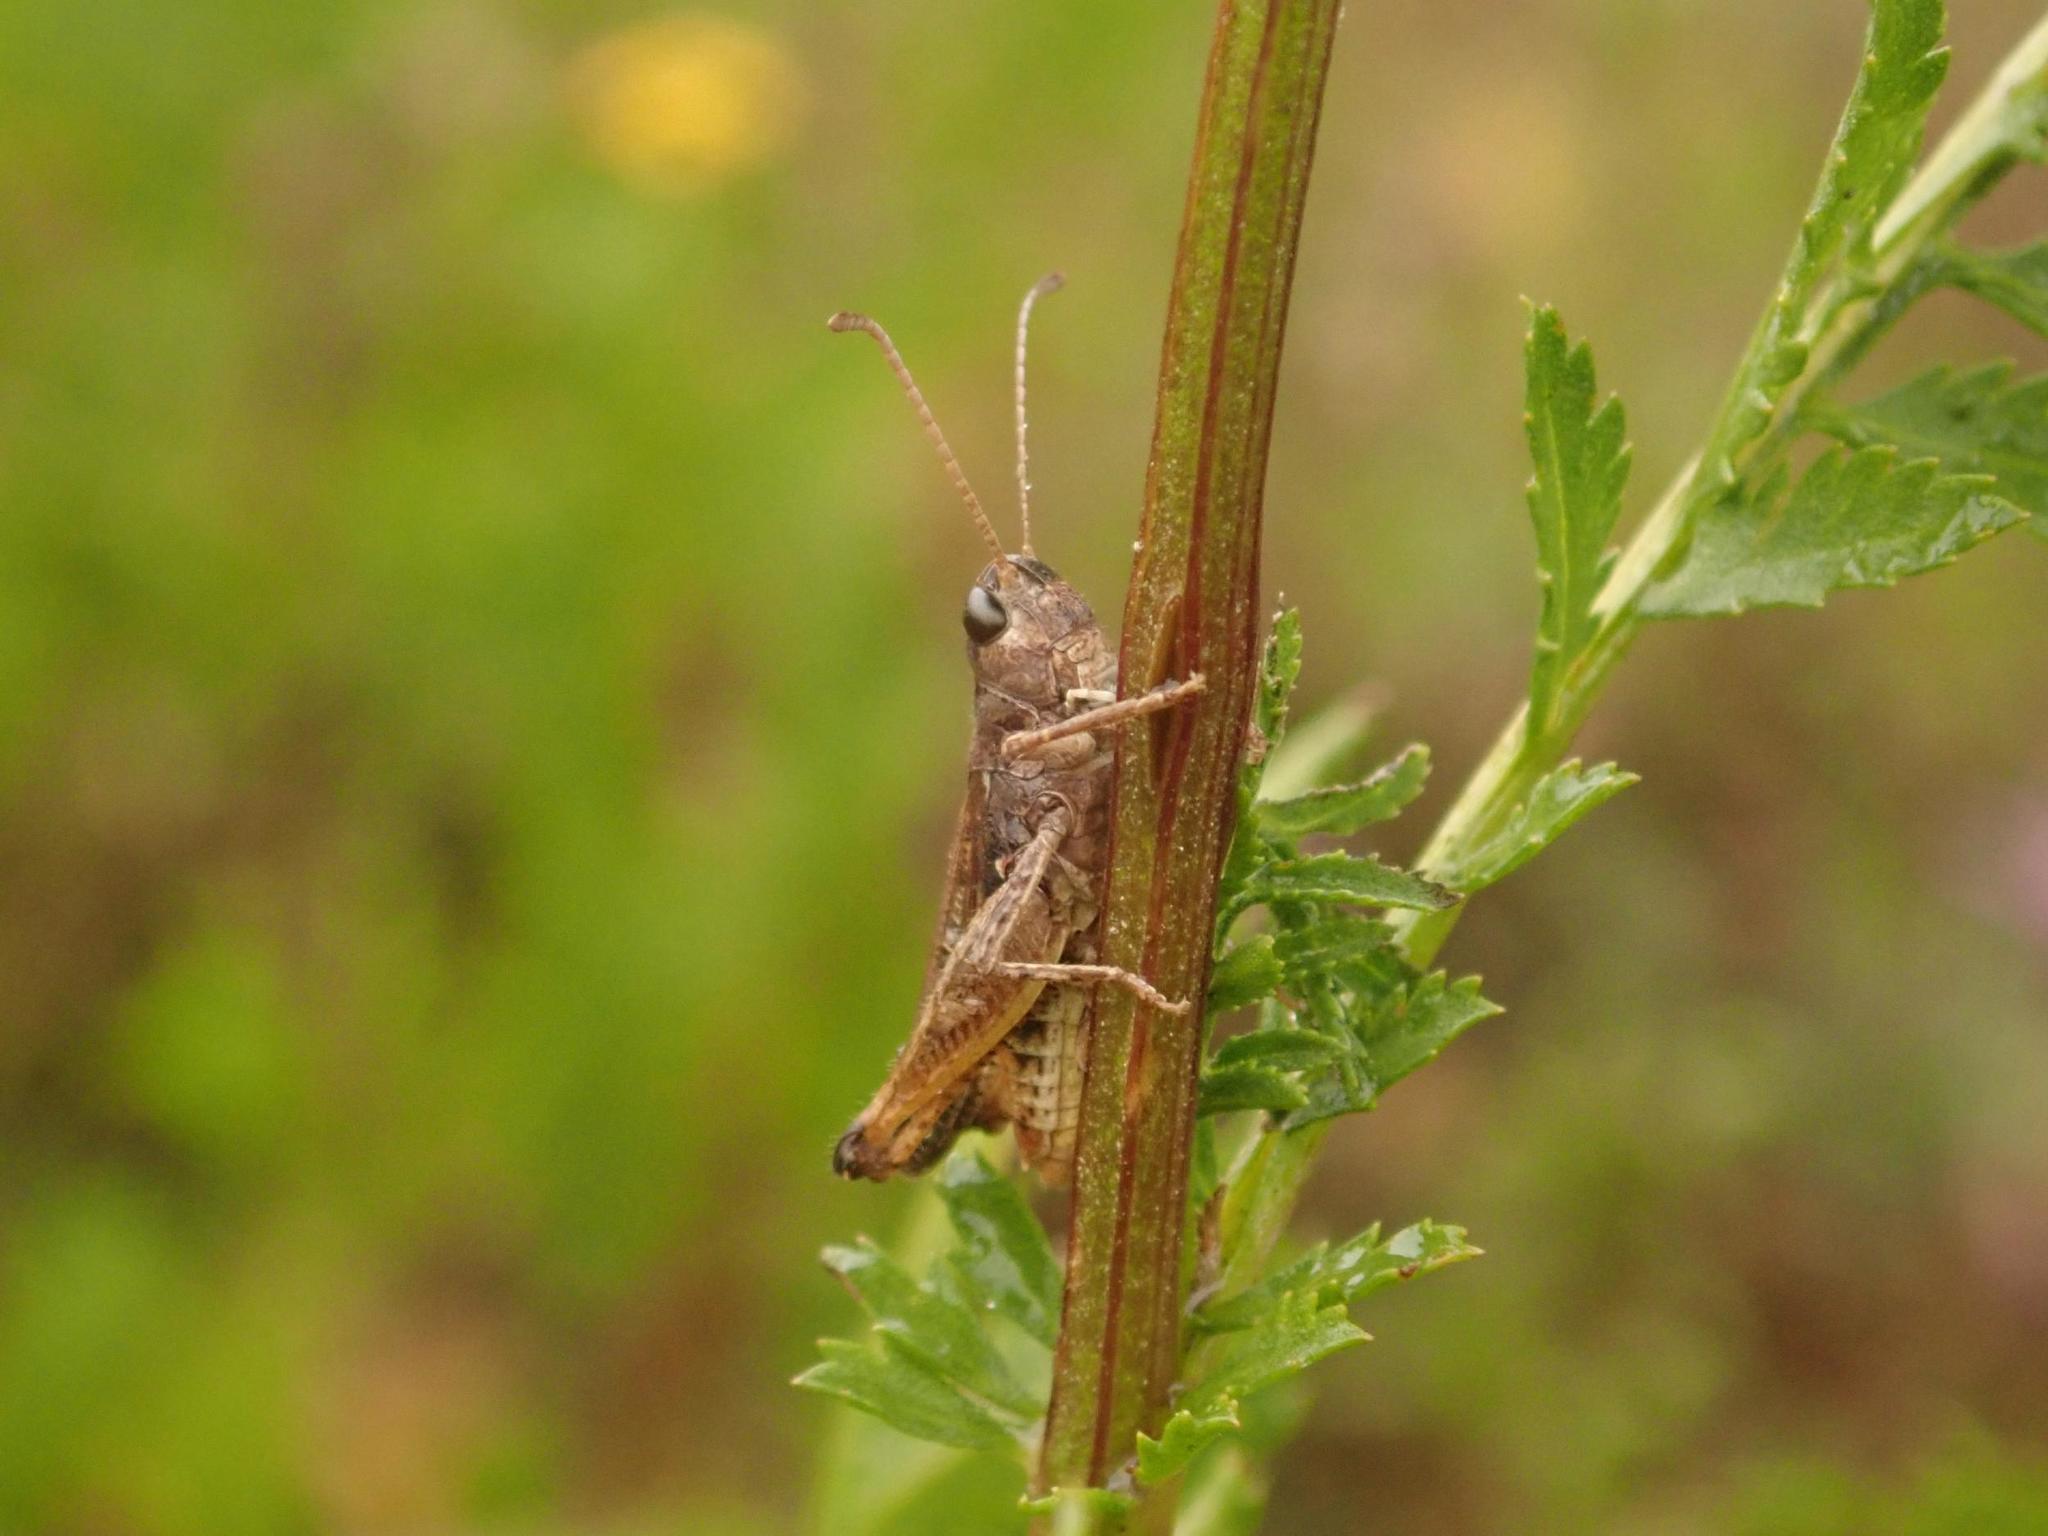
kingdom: Animalia
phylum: Arthropoda
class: Insecta
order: Orthoptera
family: Acrididae
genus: Myrmeleotettix
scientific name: Myrmeleotettix maculatus
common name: Mottled grasshopper
